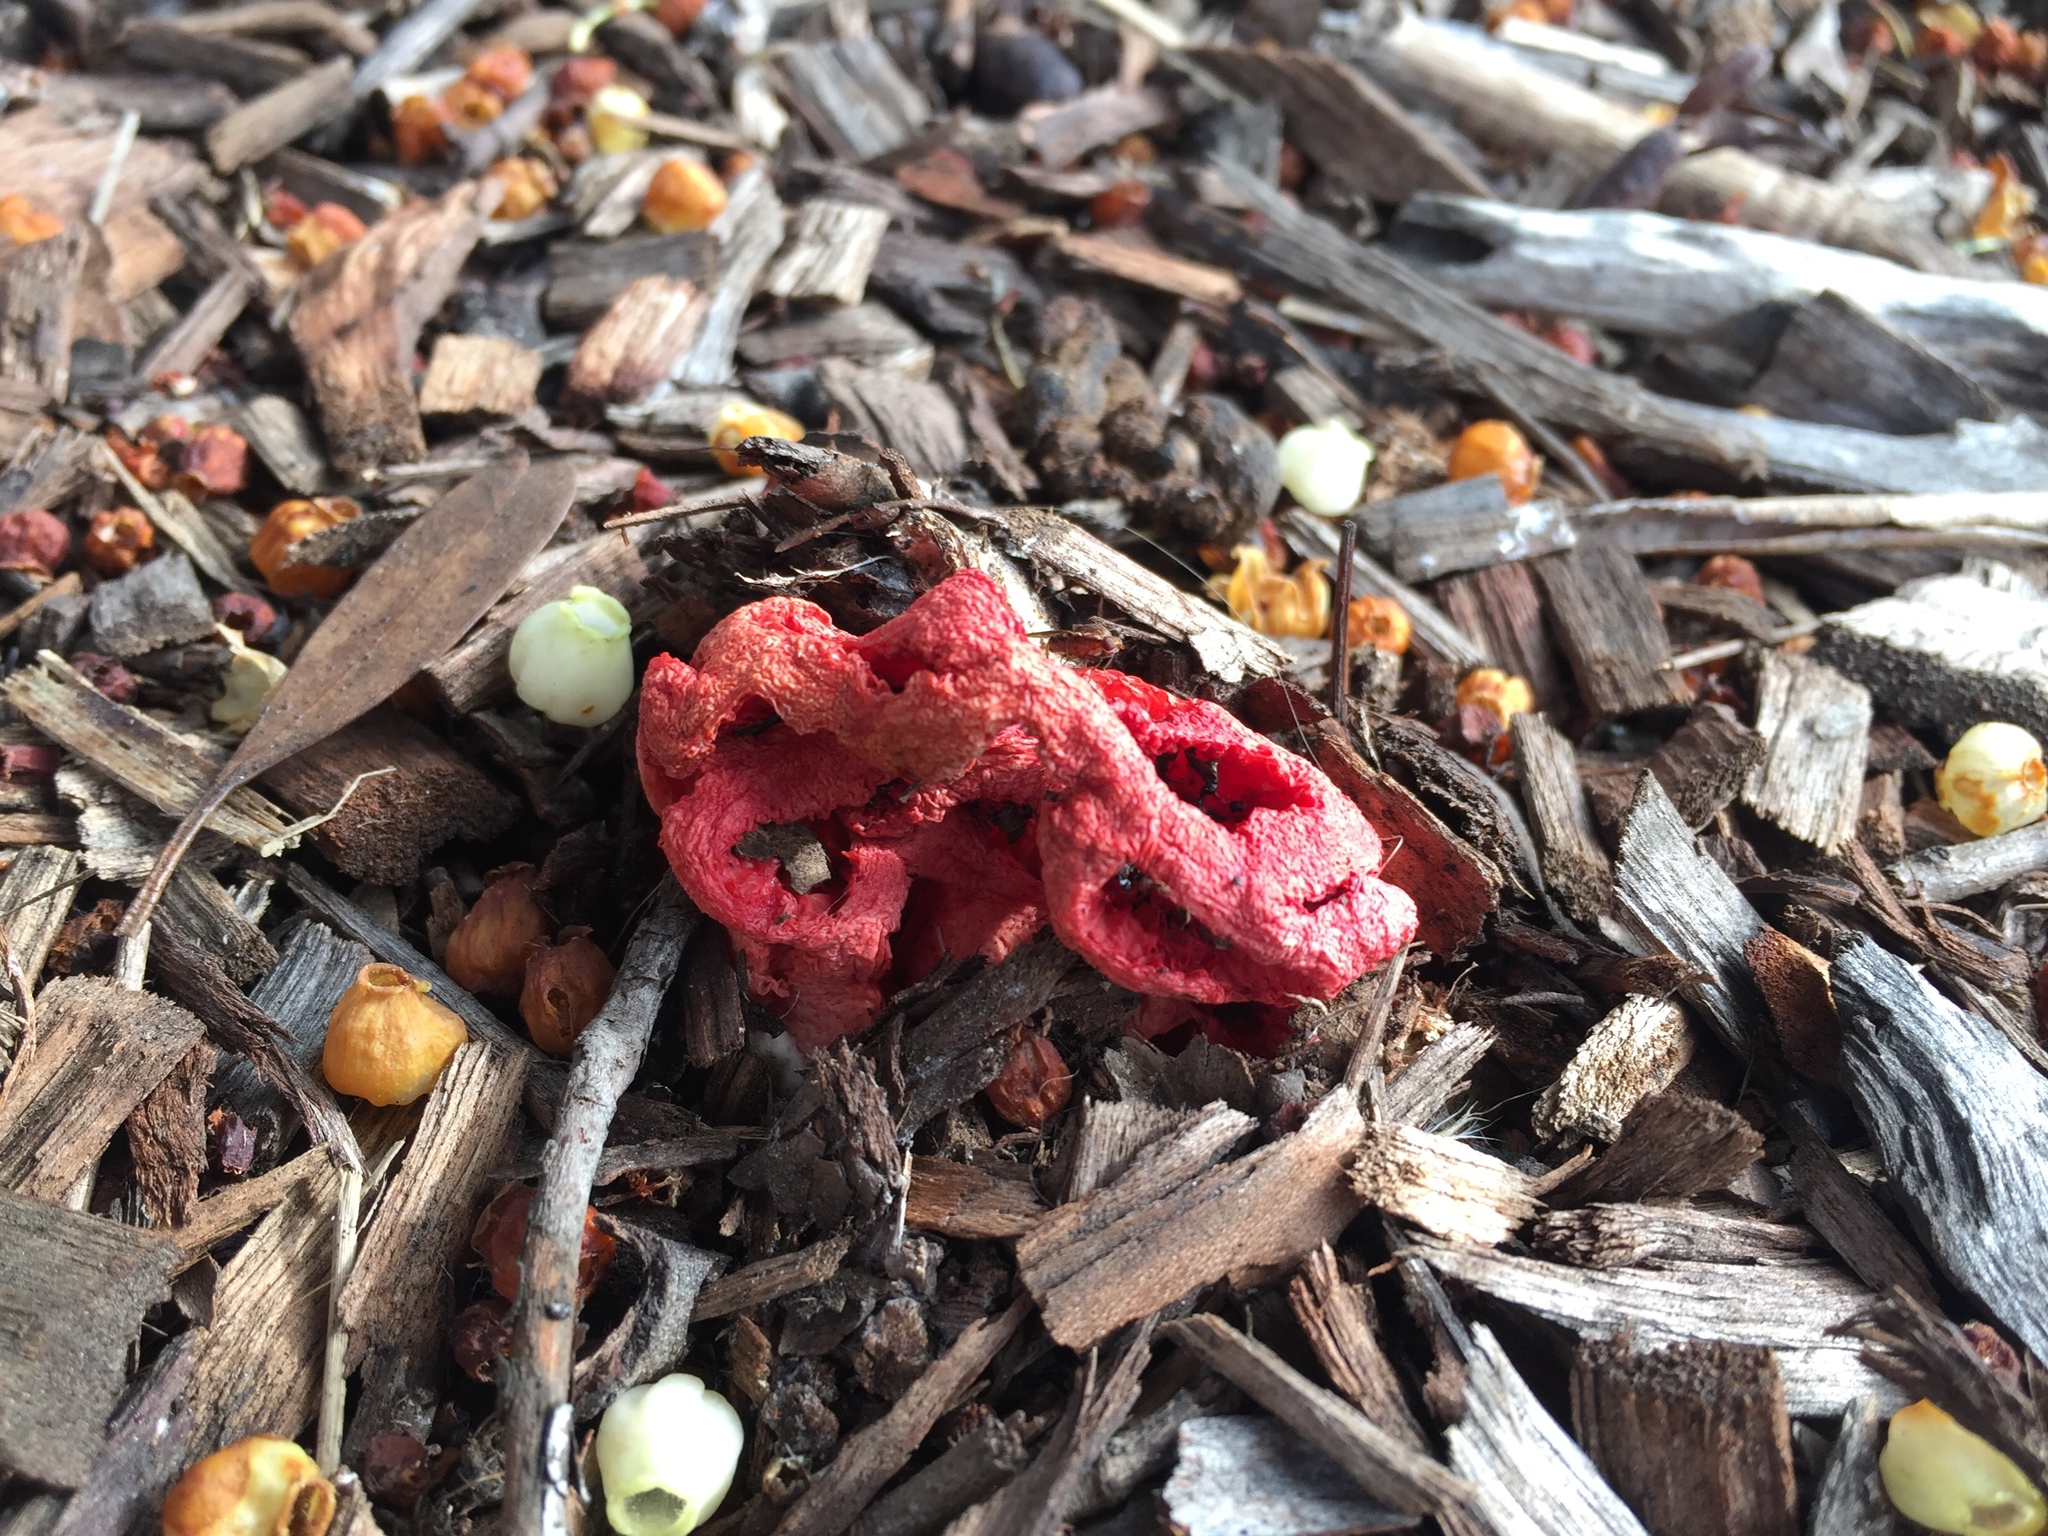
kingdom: Fungi
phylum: Basidiomycota
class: Agaricomycetes
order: Phallales
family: Phallaceae
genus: Clathrus
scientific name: Clathrus ruber
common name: Red cage
